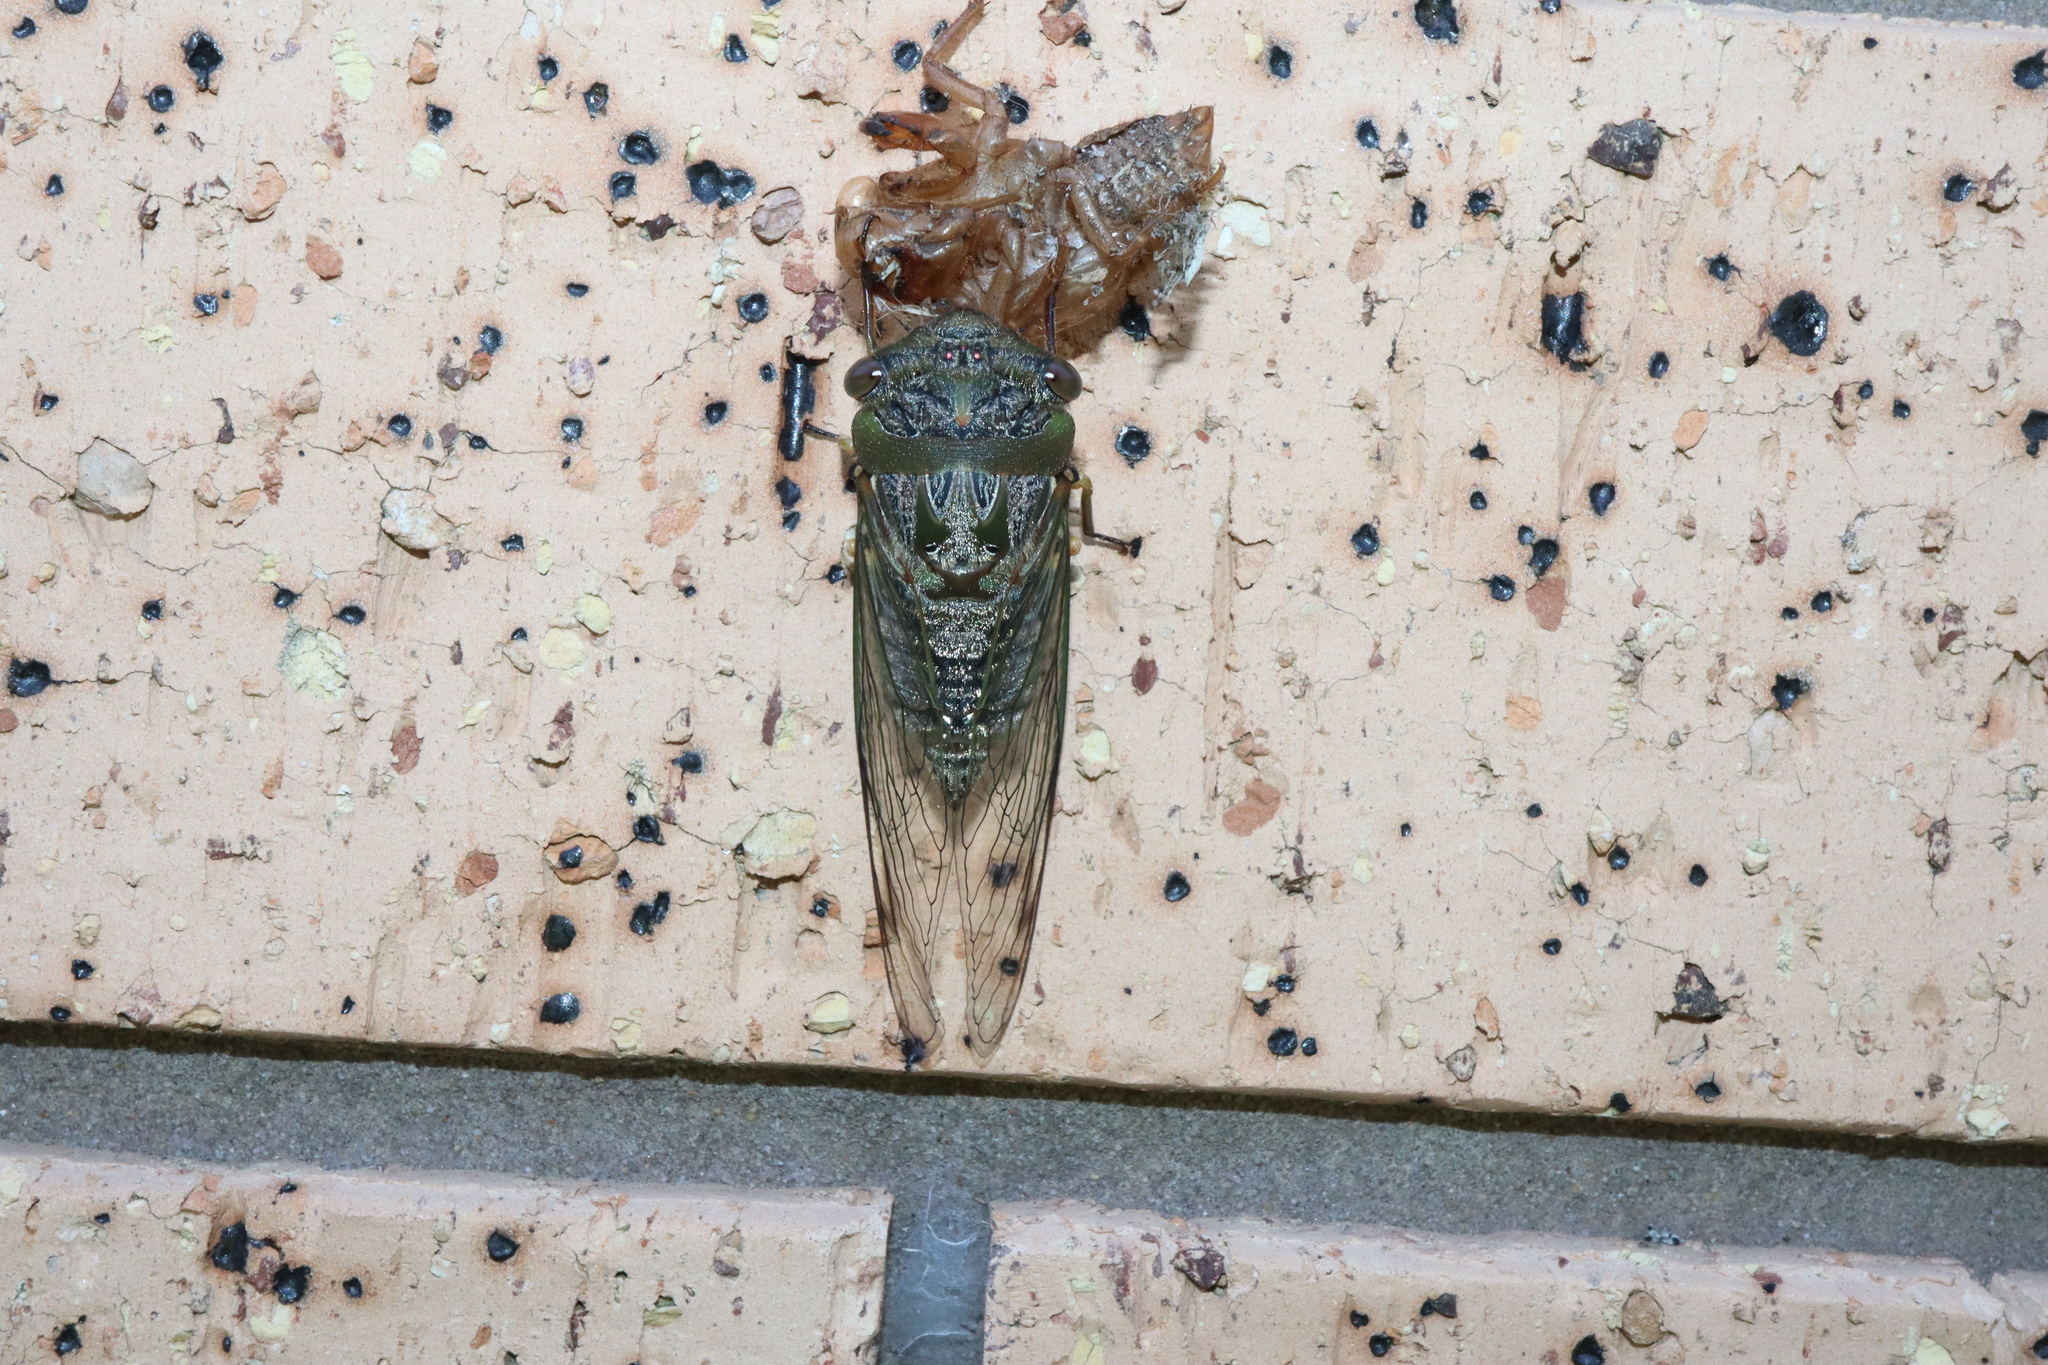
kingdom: Animalia
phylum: Arthropoda
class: Insecta
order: Hemiptera
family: Cicadidae
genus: Psaltoda
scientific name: Psaltoda plaga
